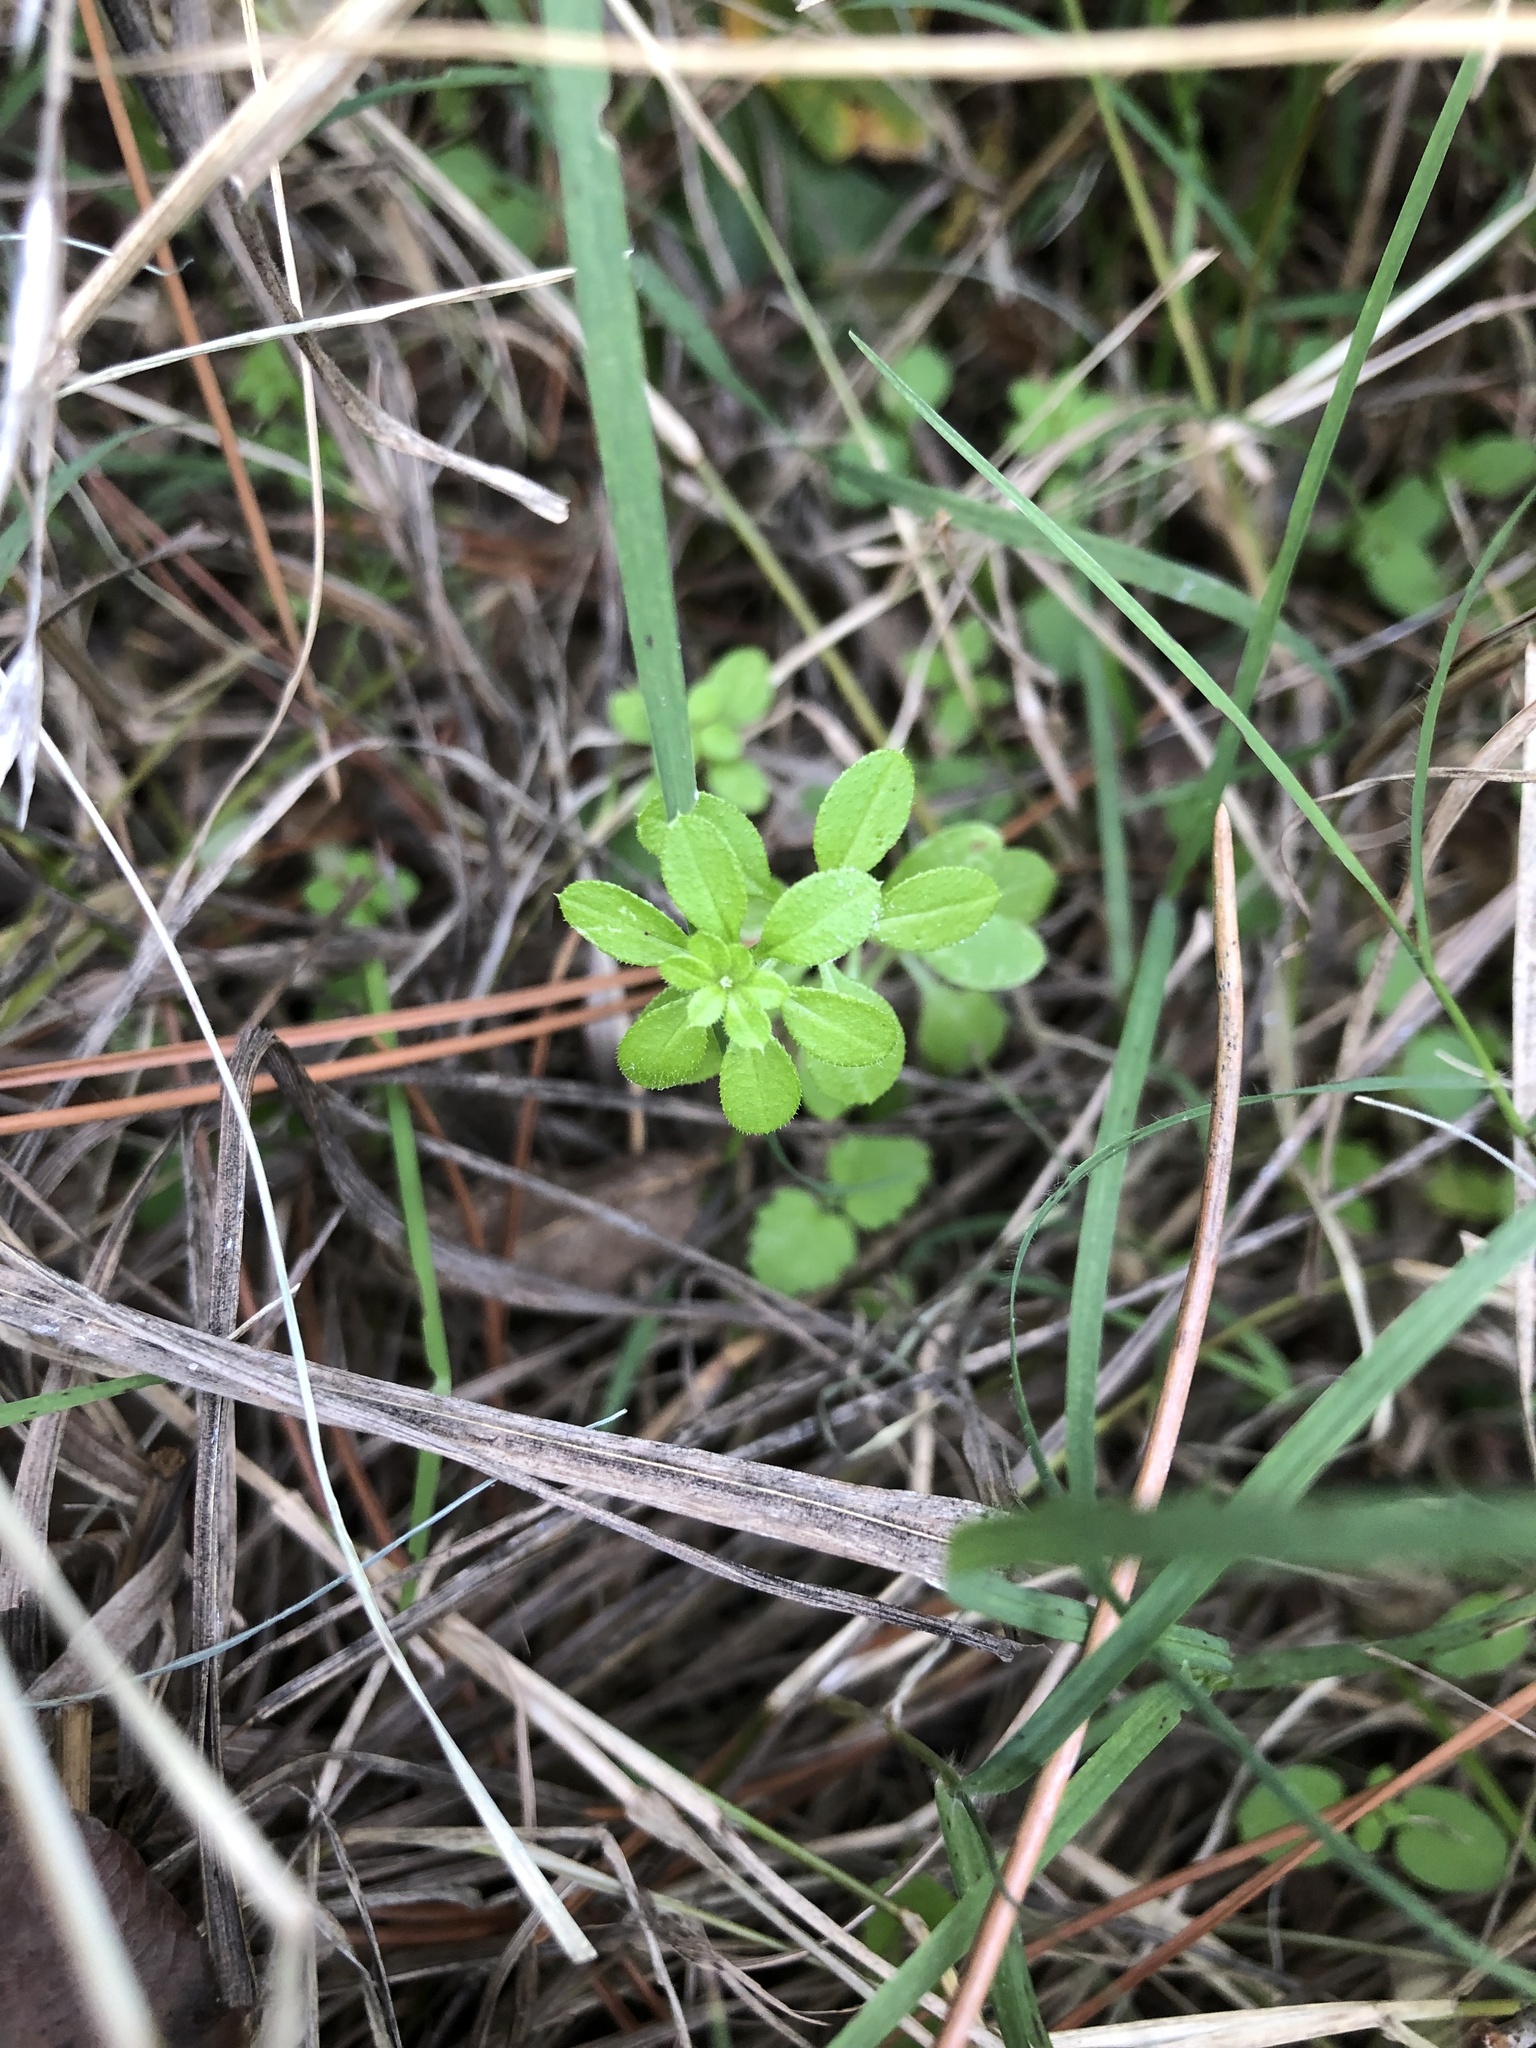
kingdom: Plantae
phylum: Tracheophyta
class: Magnoliopsida
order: Gentianales
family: Rubiaceae
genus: Galium
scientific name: Galium aparine
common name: Cleavers
